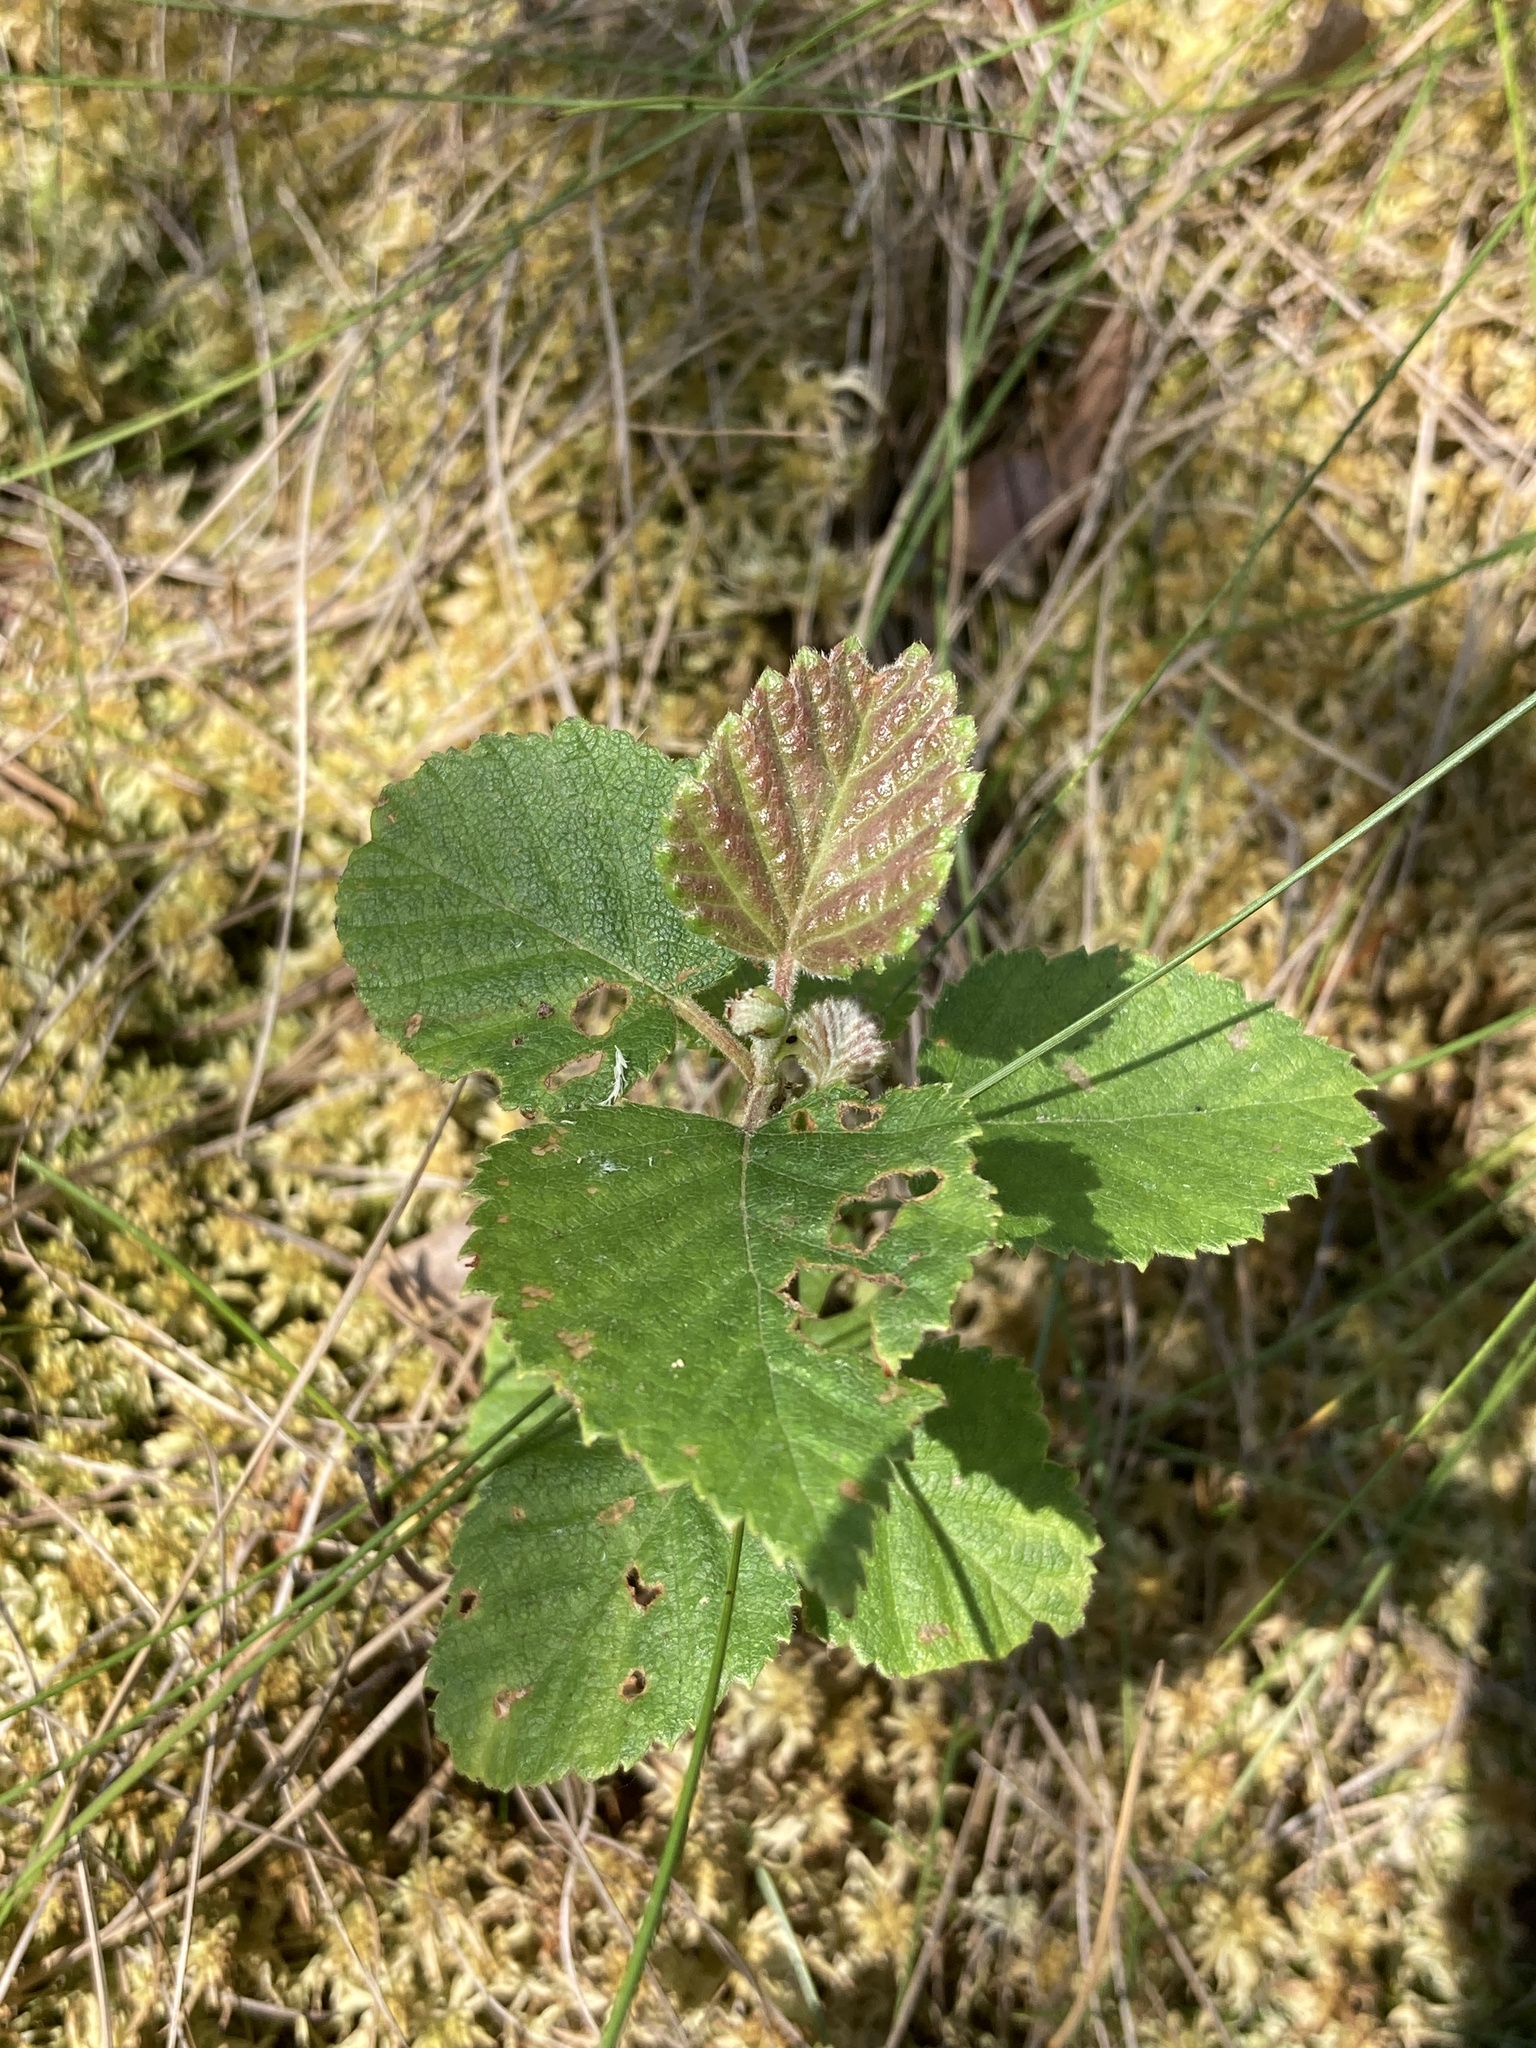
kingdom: Plantae
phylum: Tracheophyta
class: Magnoliopsida
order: Fagales
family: Betulaceae
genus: Betula
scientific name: Betula pubescens
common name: Downy birch
